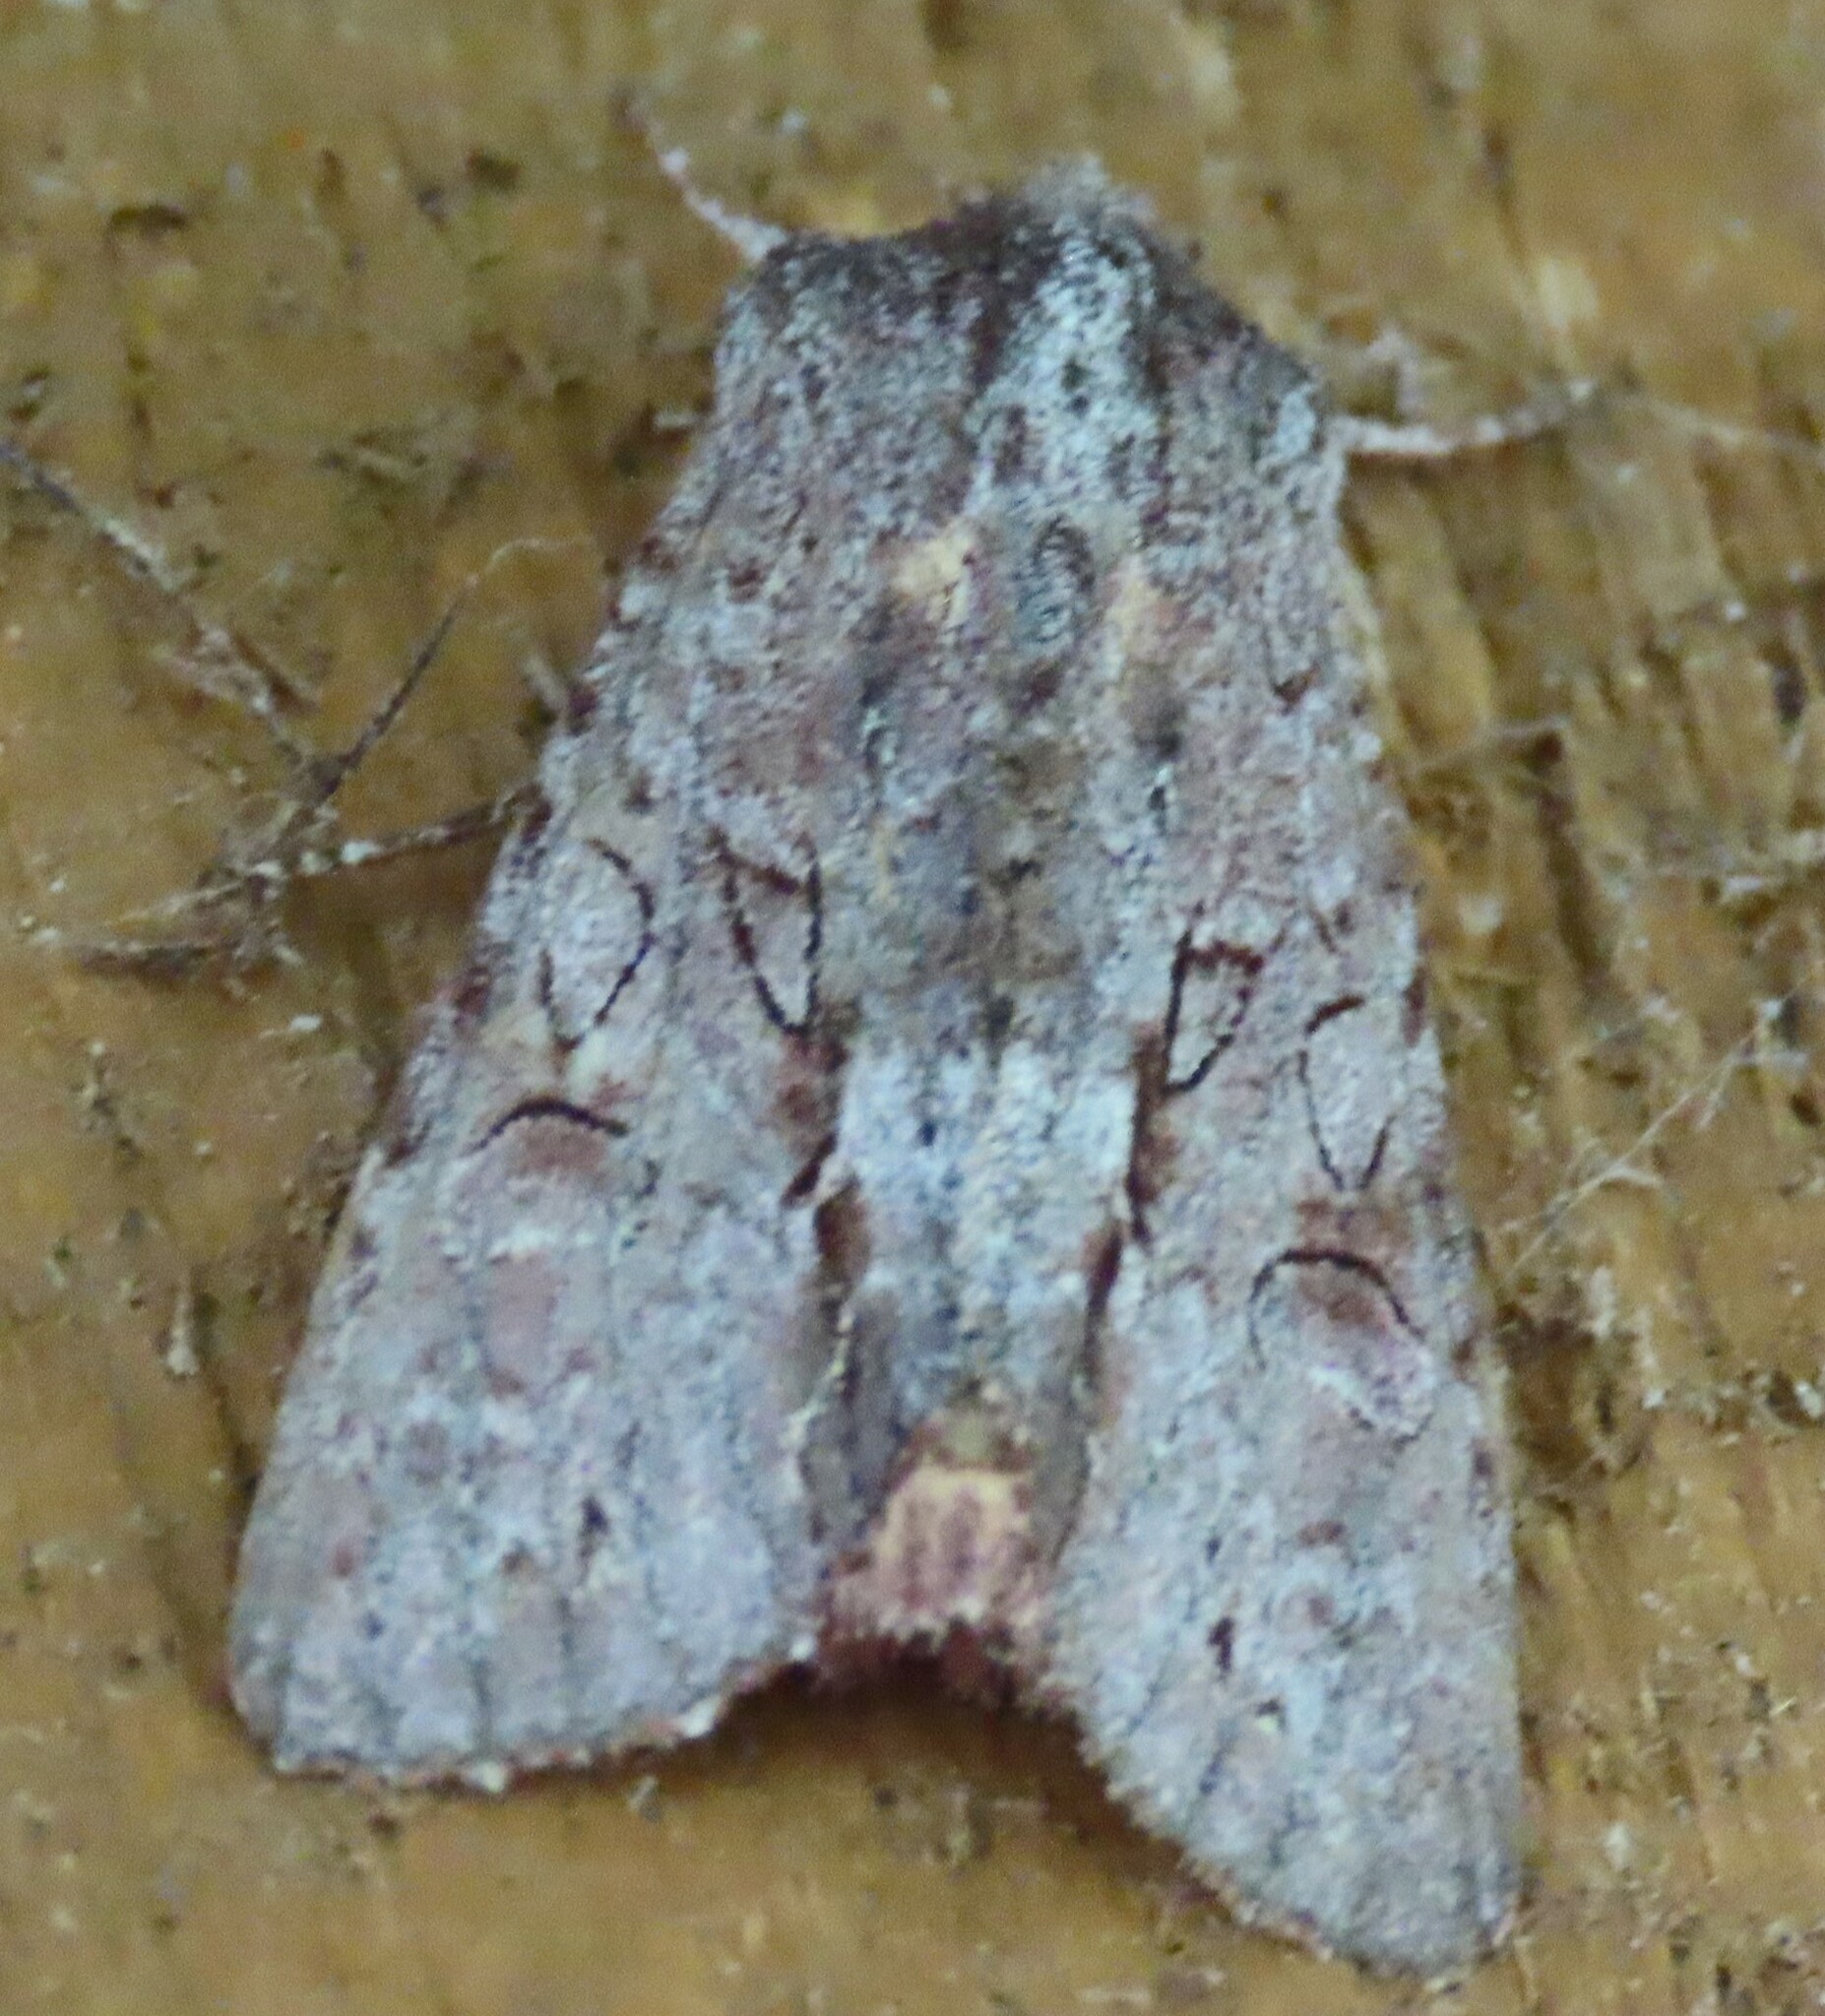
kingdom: Animalia
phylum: Arthropoda
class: Insecta
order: Lepidoptera
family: Noctuidae
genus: Ichneutica
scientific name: Ichneutica
